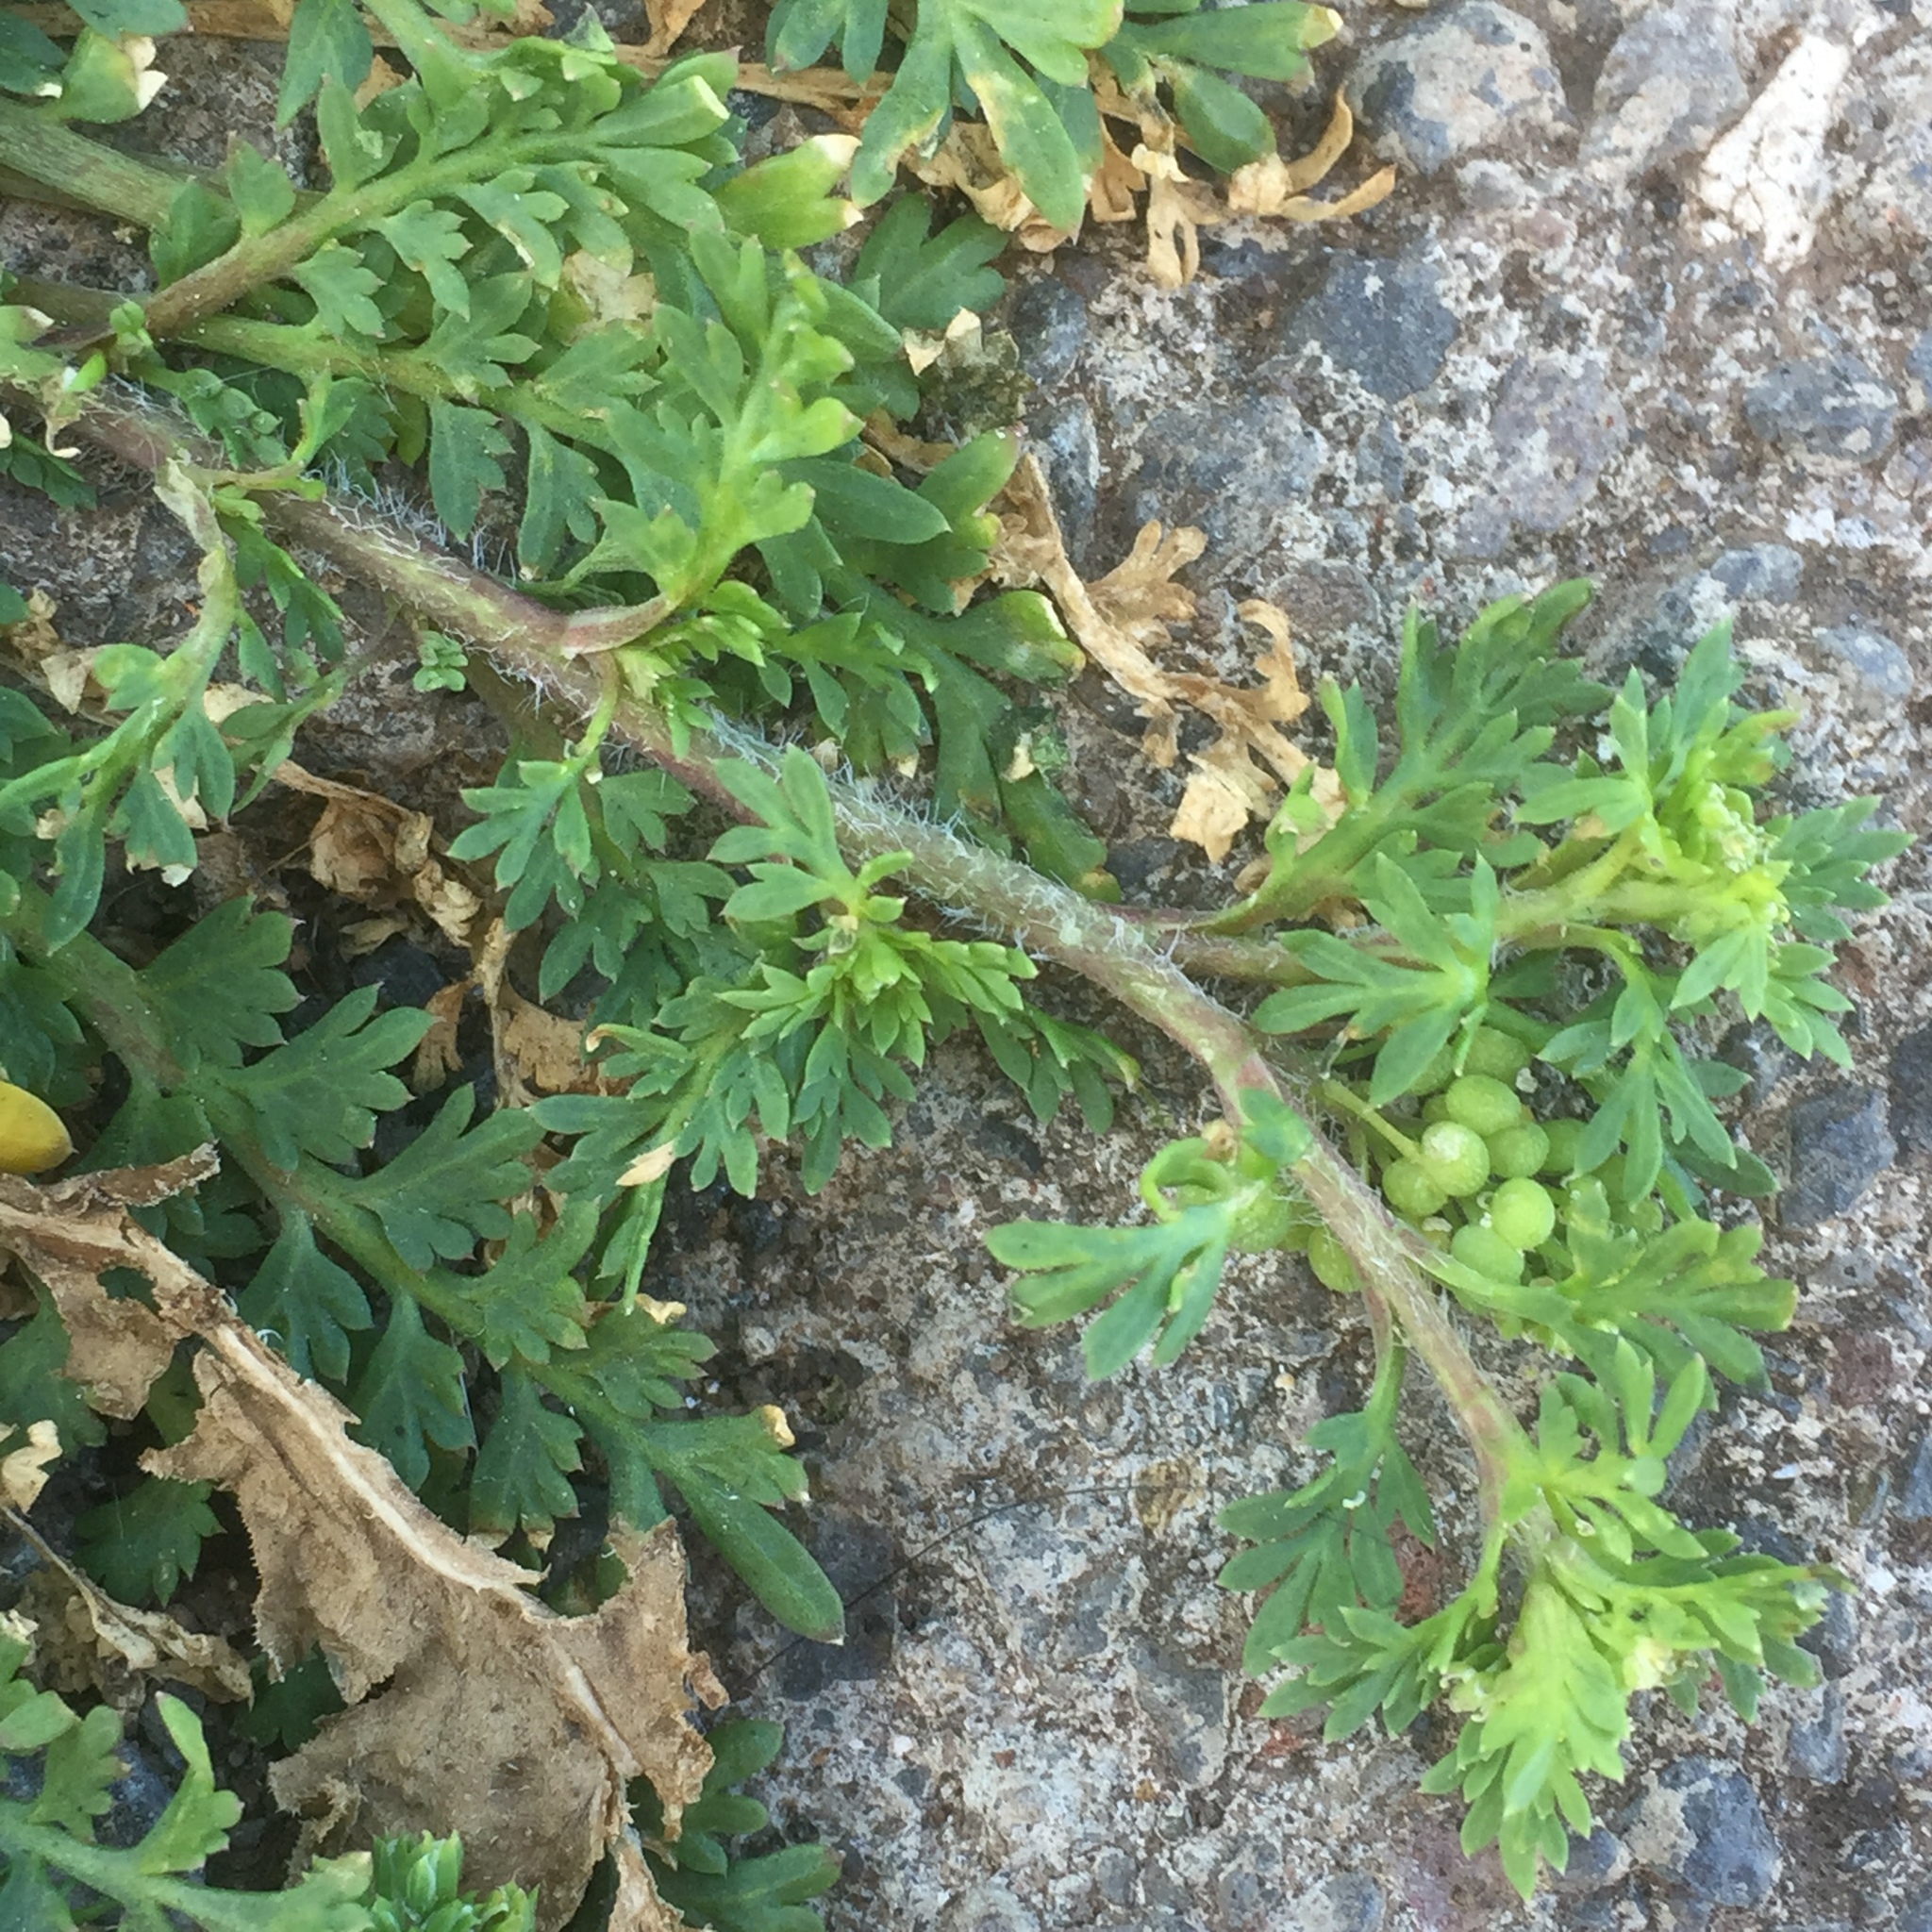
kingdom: Plantae
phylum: Tracheophyta
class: Magnoliopsida
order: Brassicales
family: Brassicaceae
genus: Lepidium
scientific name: Lepidium didymum
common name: Lesser swinecress
